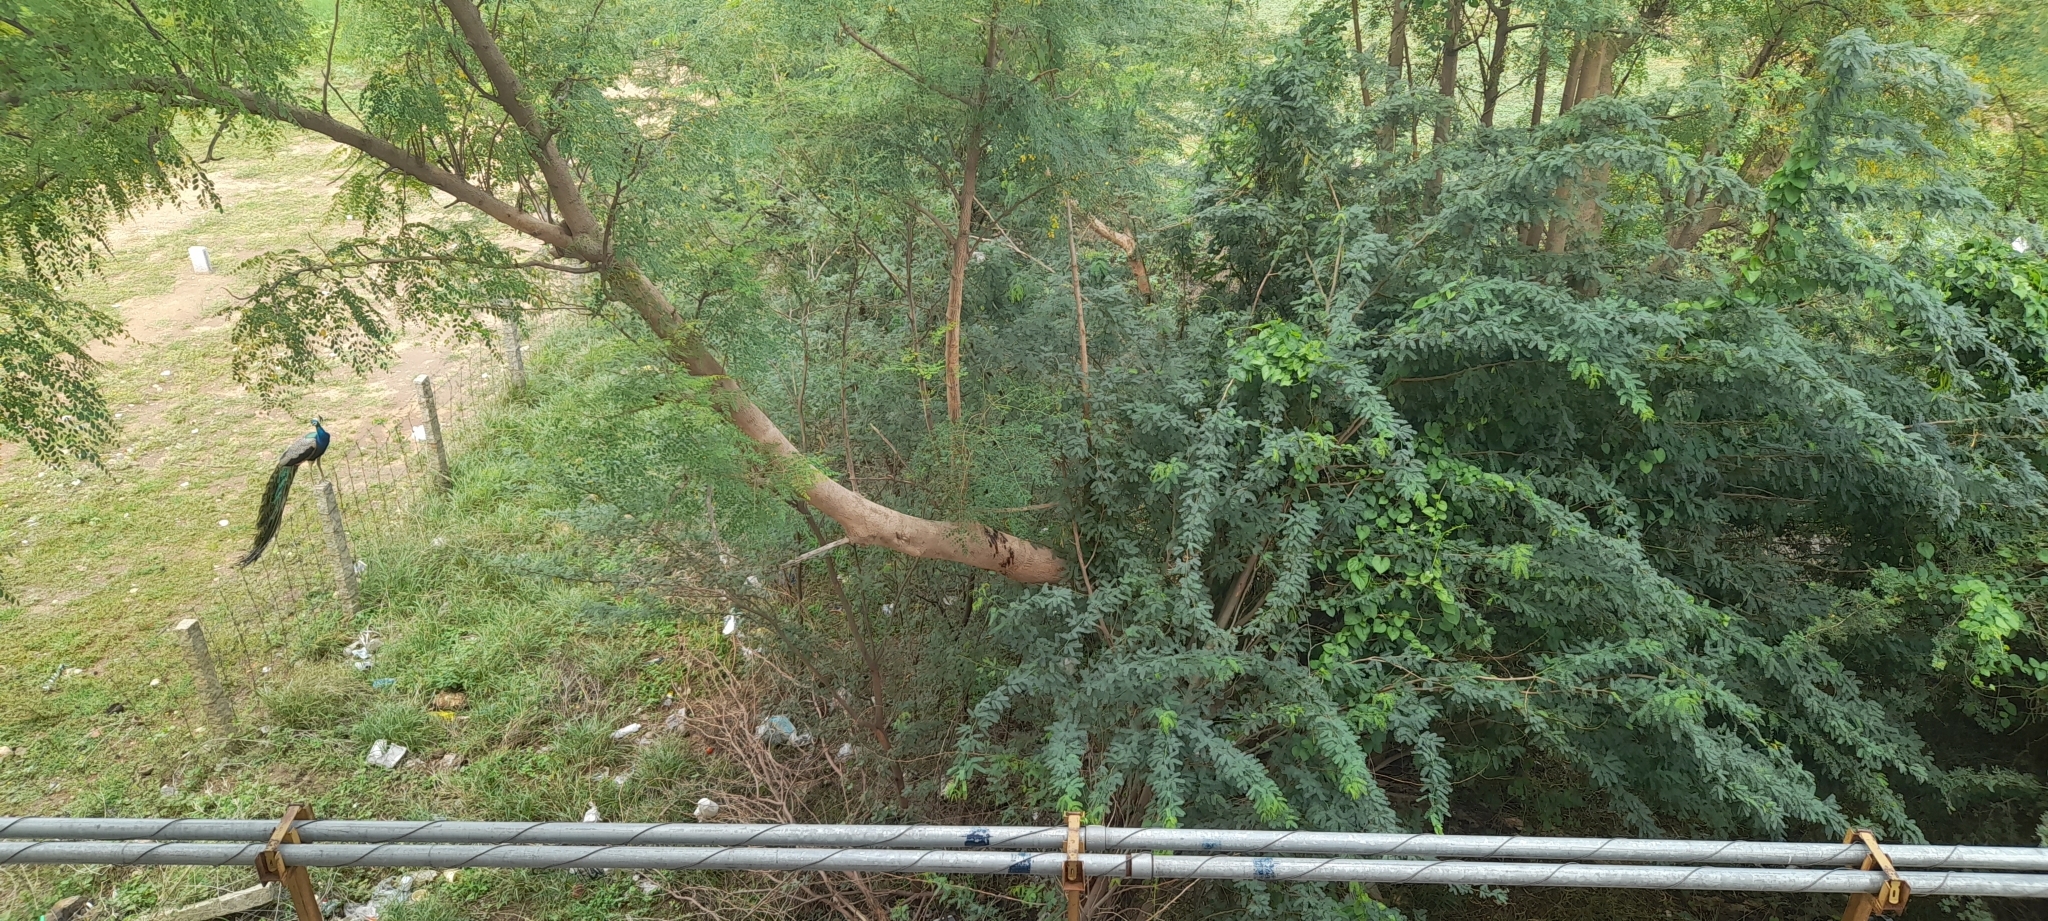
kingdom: Animalia
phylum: Chordata
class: Aves
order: Galliformes
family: Phasianidae
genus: Pavo
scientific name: Pavo cristatus
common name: Indian peafowl
